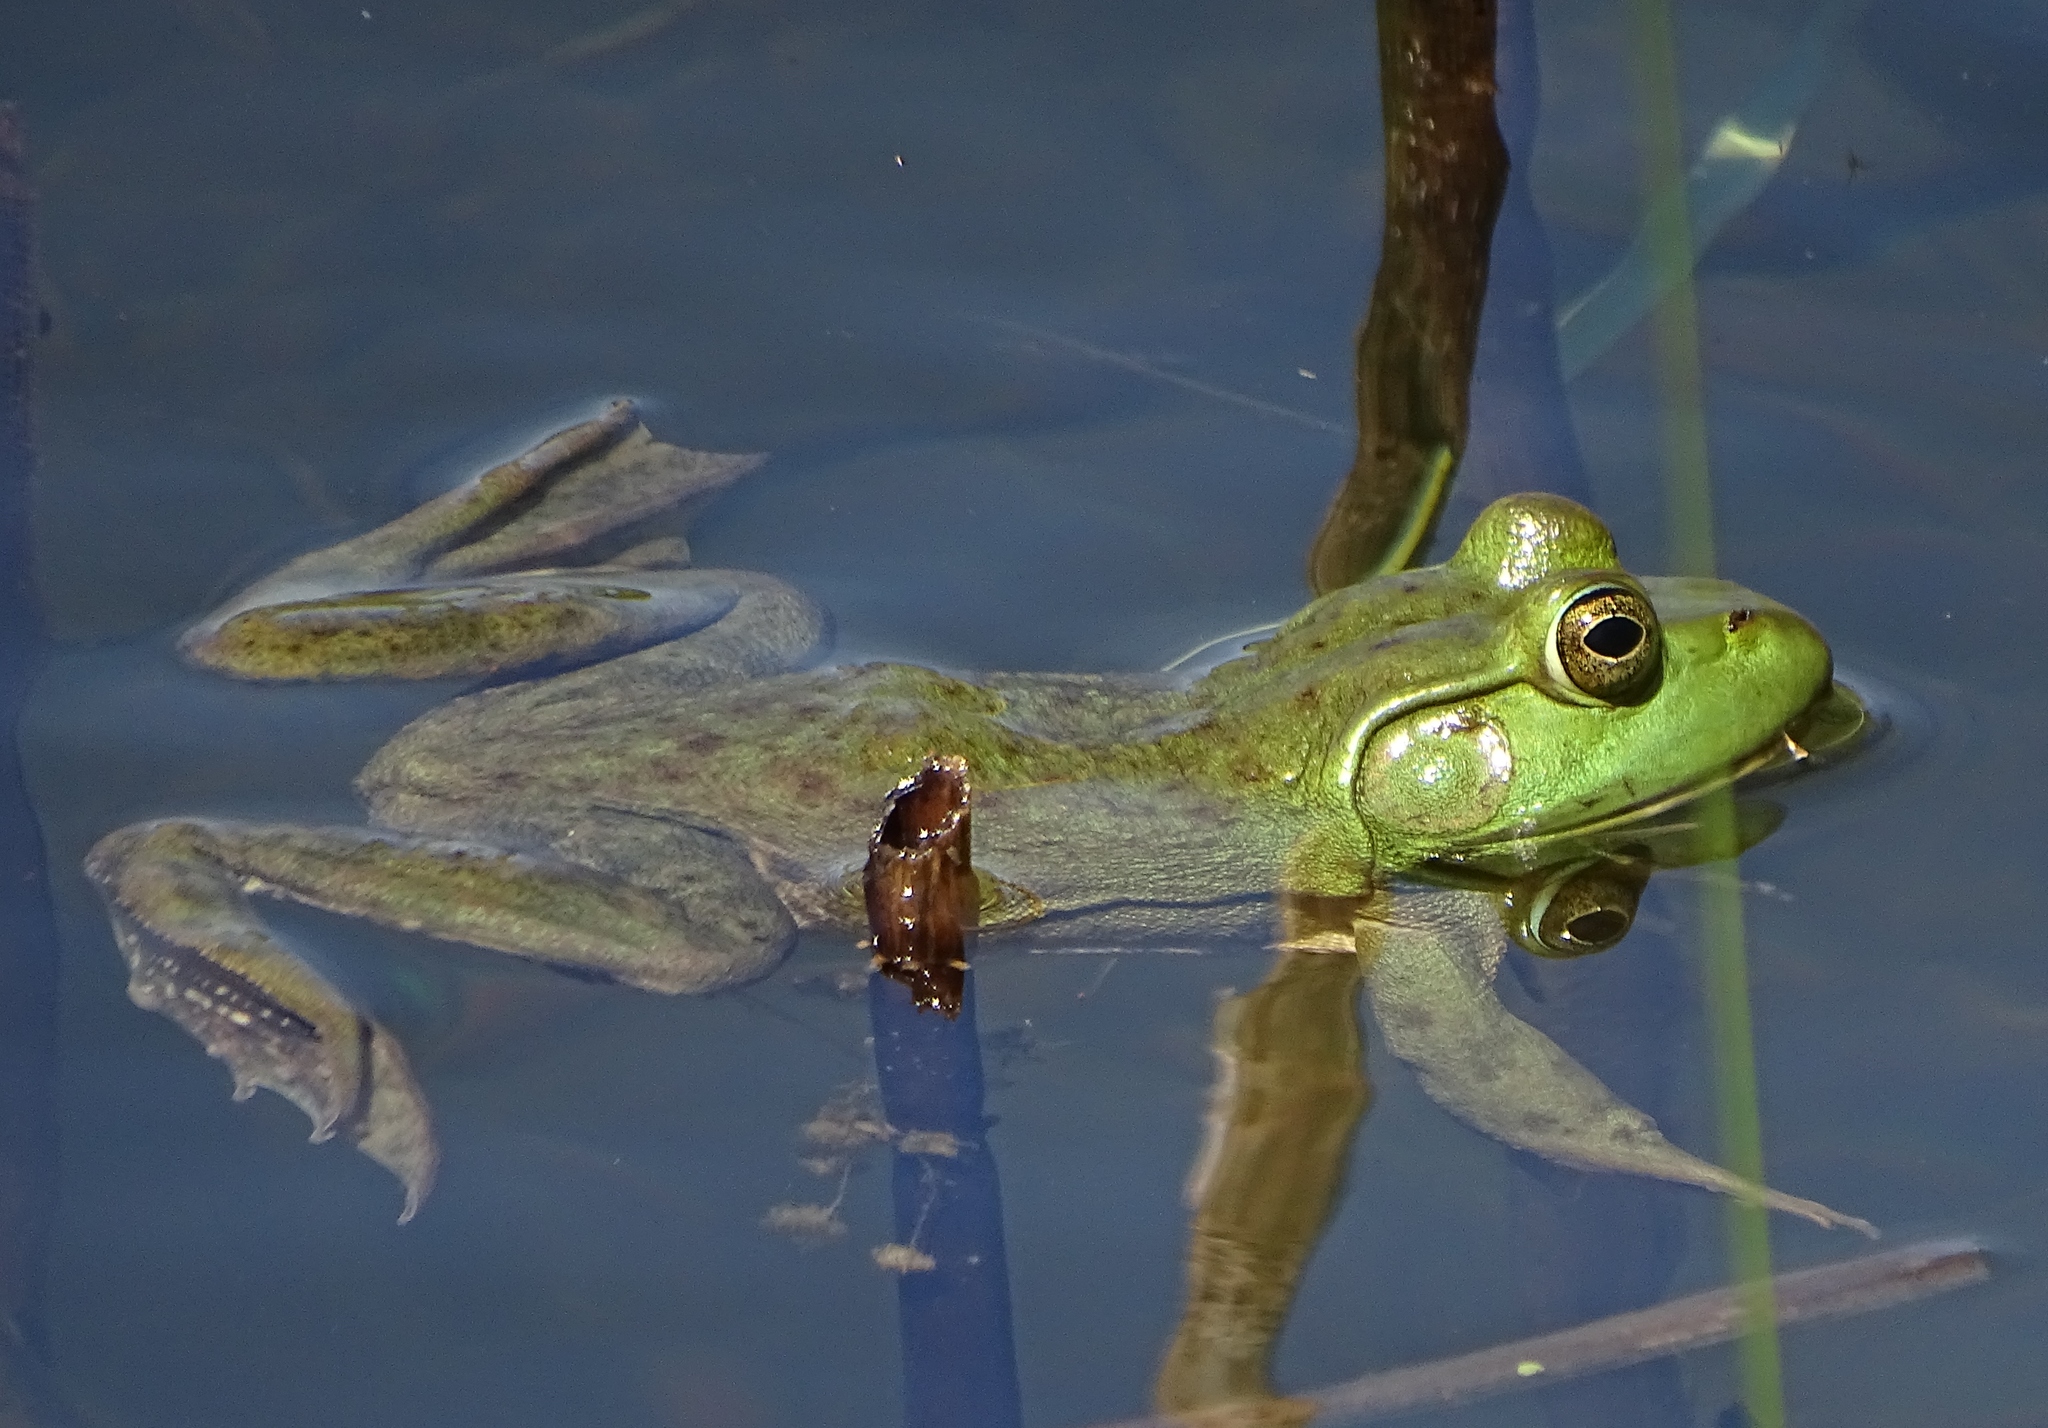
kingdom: Animalia
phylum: Chordata
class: Amphibia
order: Anura
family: Ranidae
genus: Lithobates
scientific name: Lithobates catesbeianus
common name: American bullfrog
